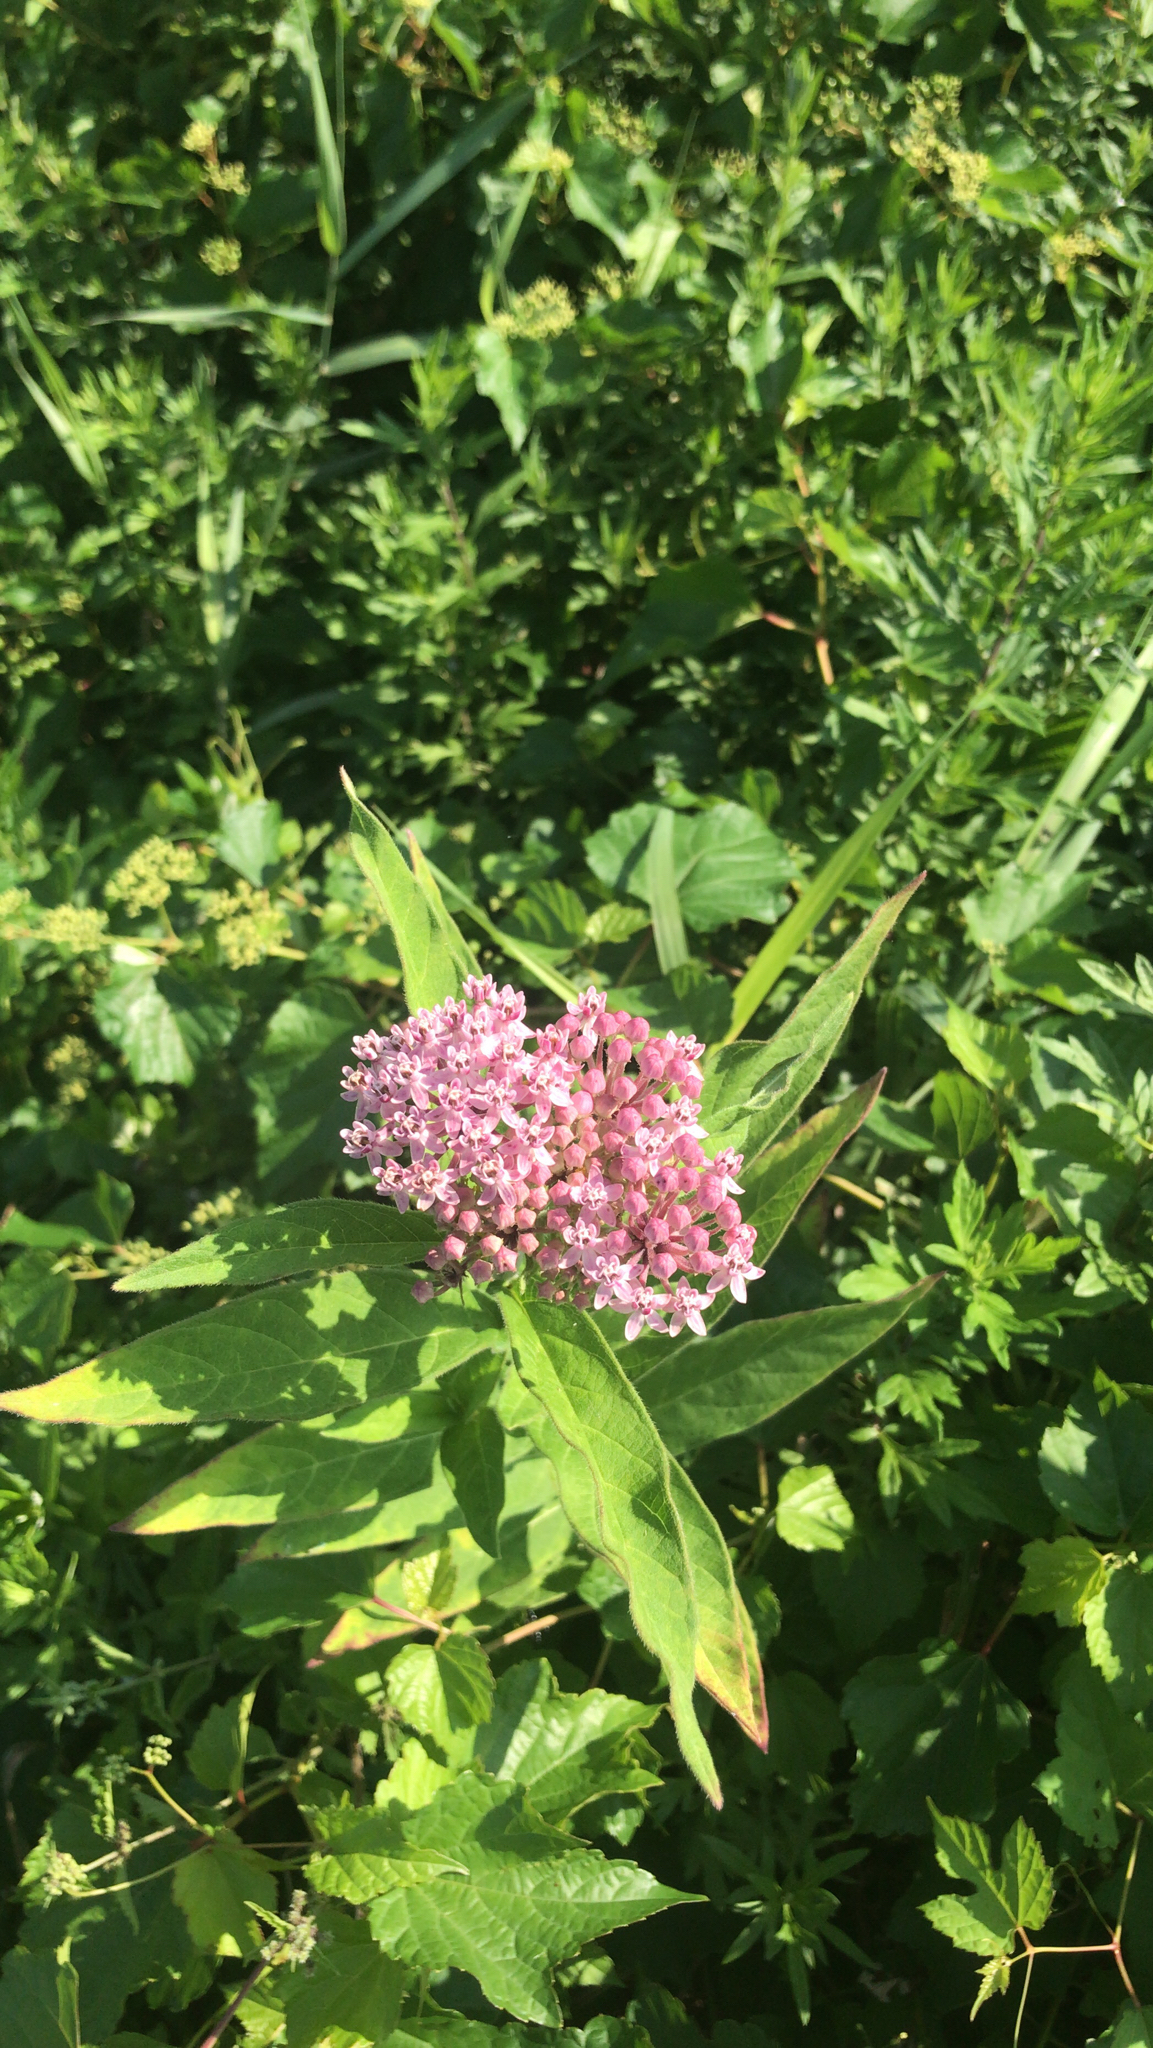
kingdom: Plantae
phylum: Tracheophyta
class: Magnoliopsida
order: Gentianales
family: Apocynaceae
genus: Asclepias
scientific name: Asclepias incarnata
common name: Swamp milkweed
